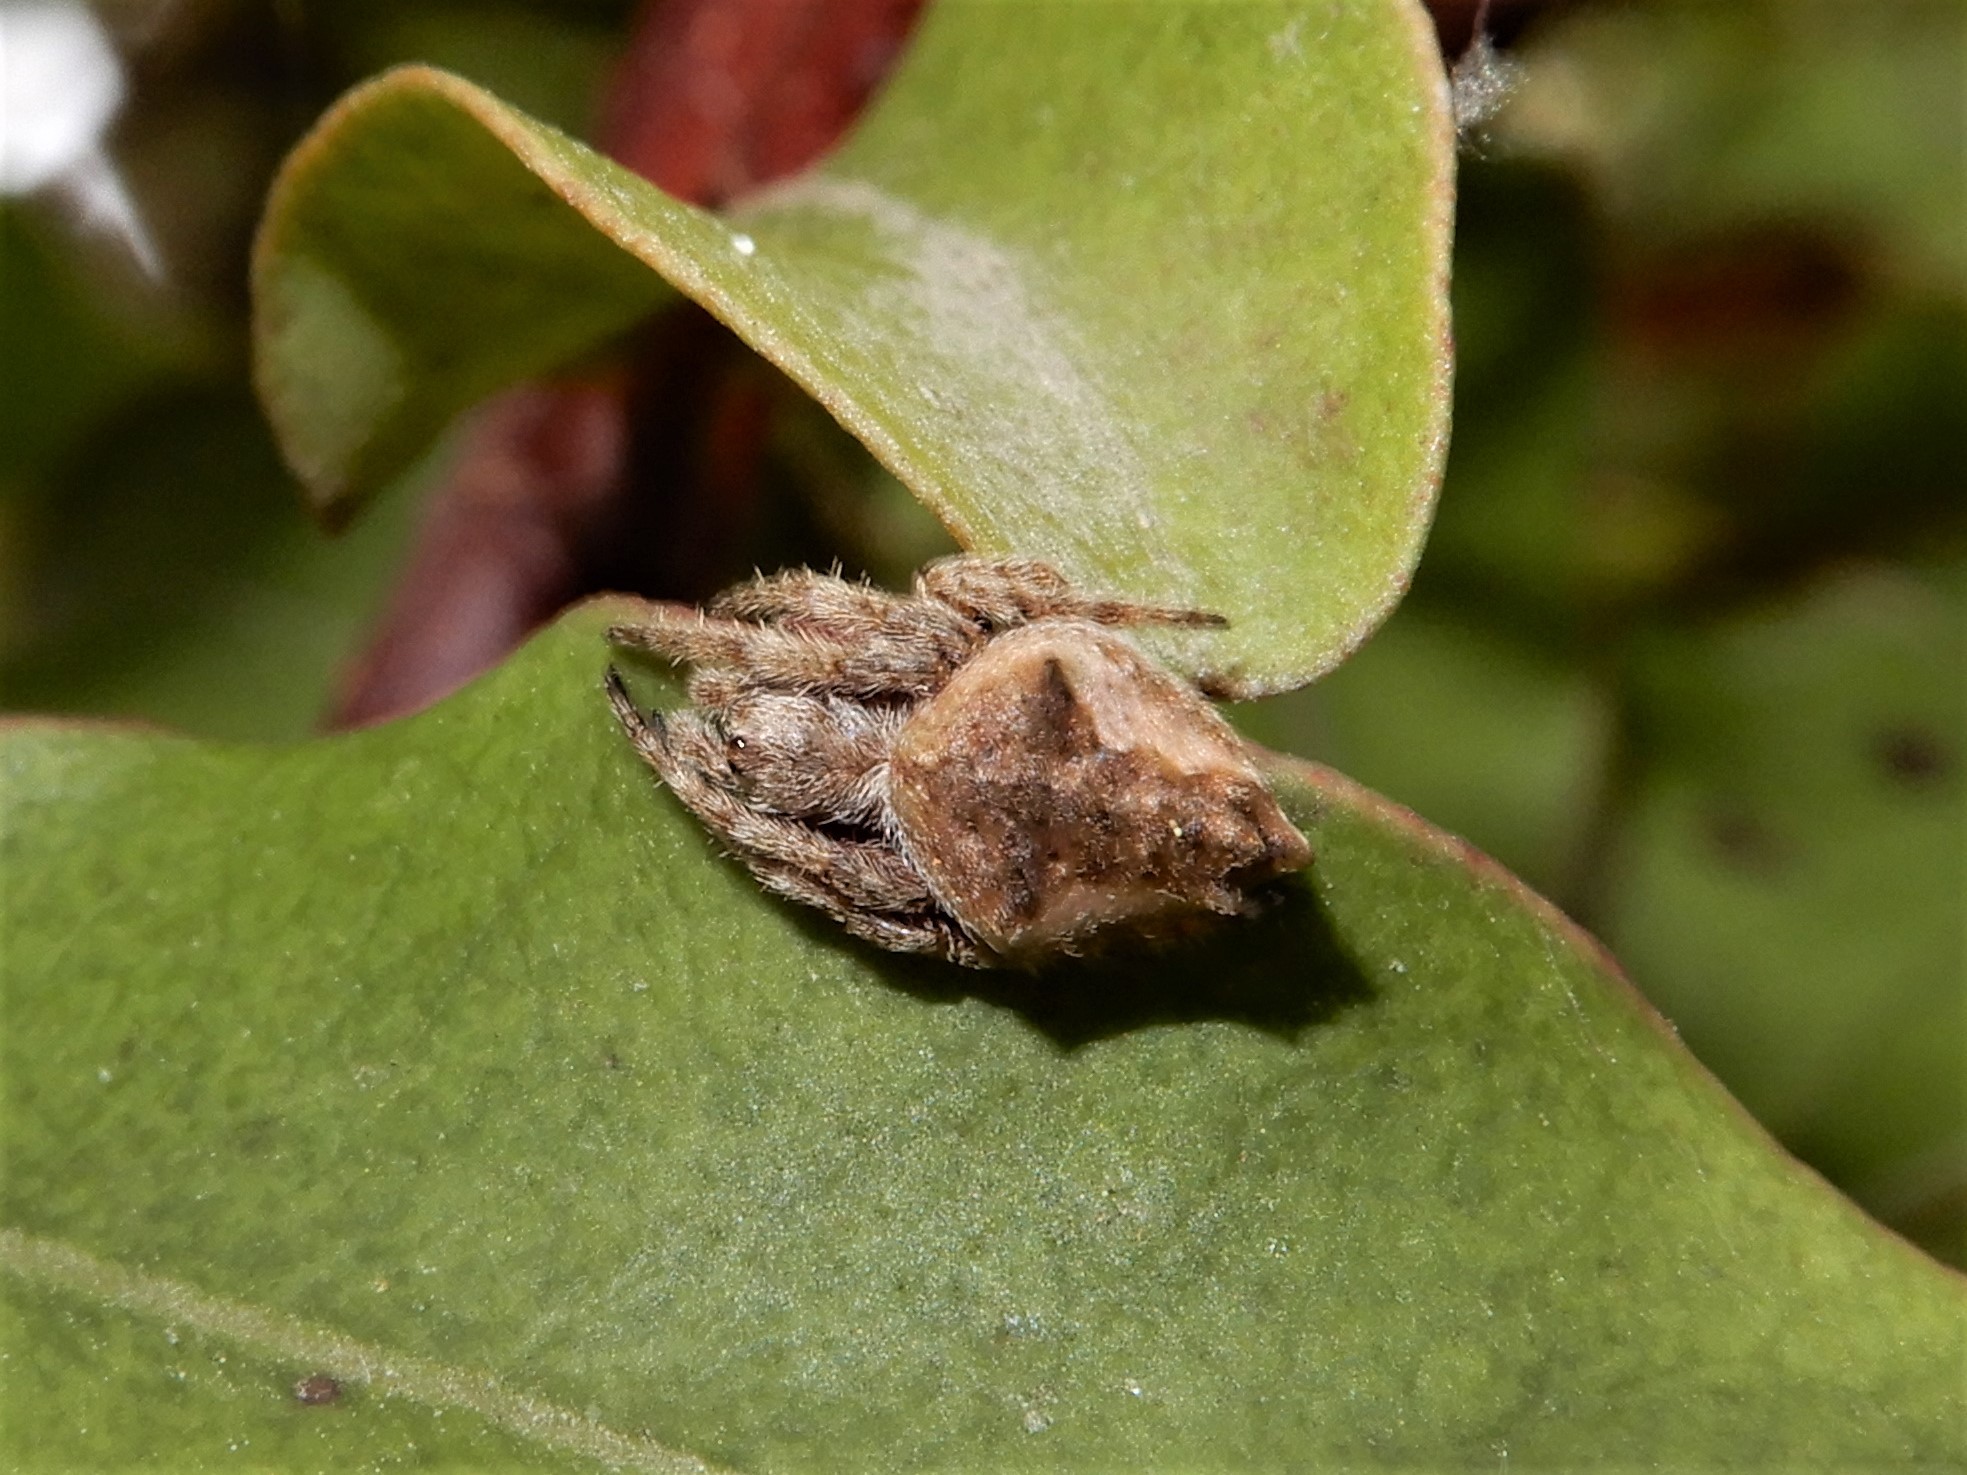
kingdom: Animalia
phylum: Arthropoda
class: Arachnida
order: Araneae
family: Araneidae
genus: Eriophora
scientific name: Eriophora pustulosa
